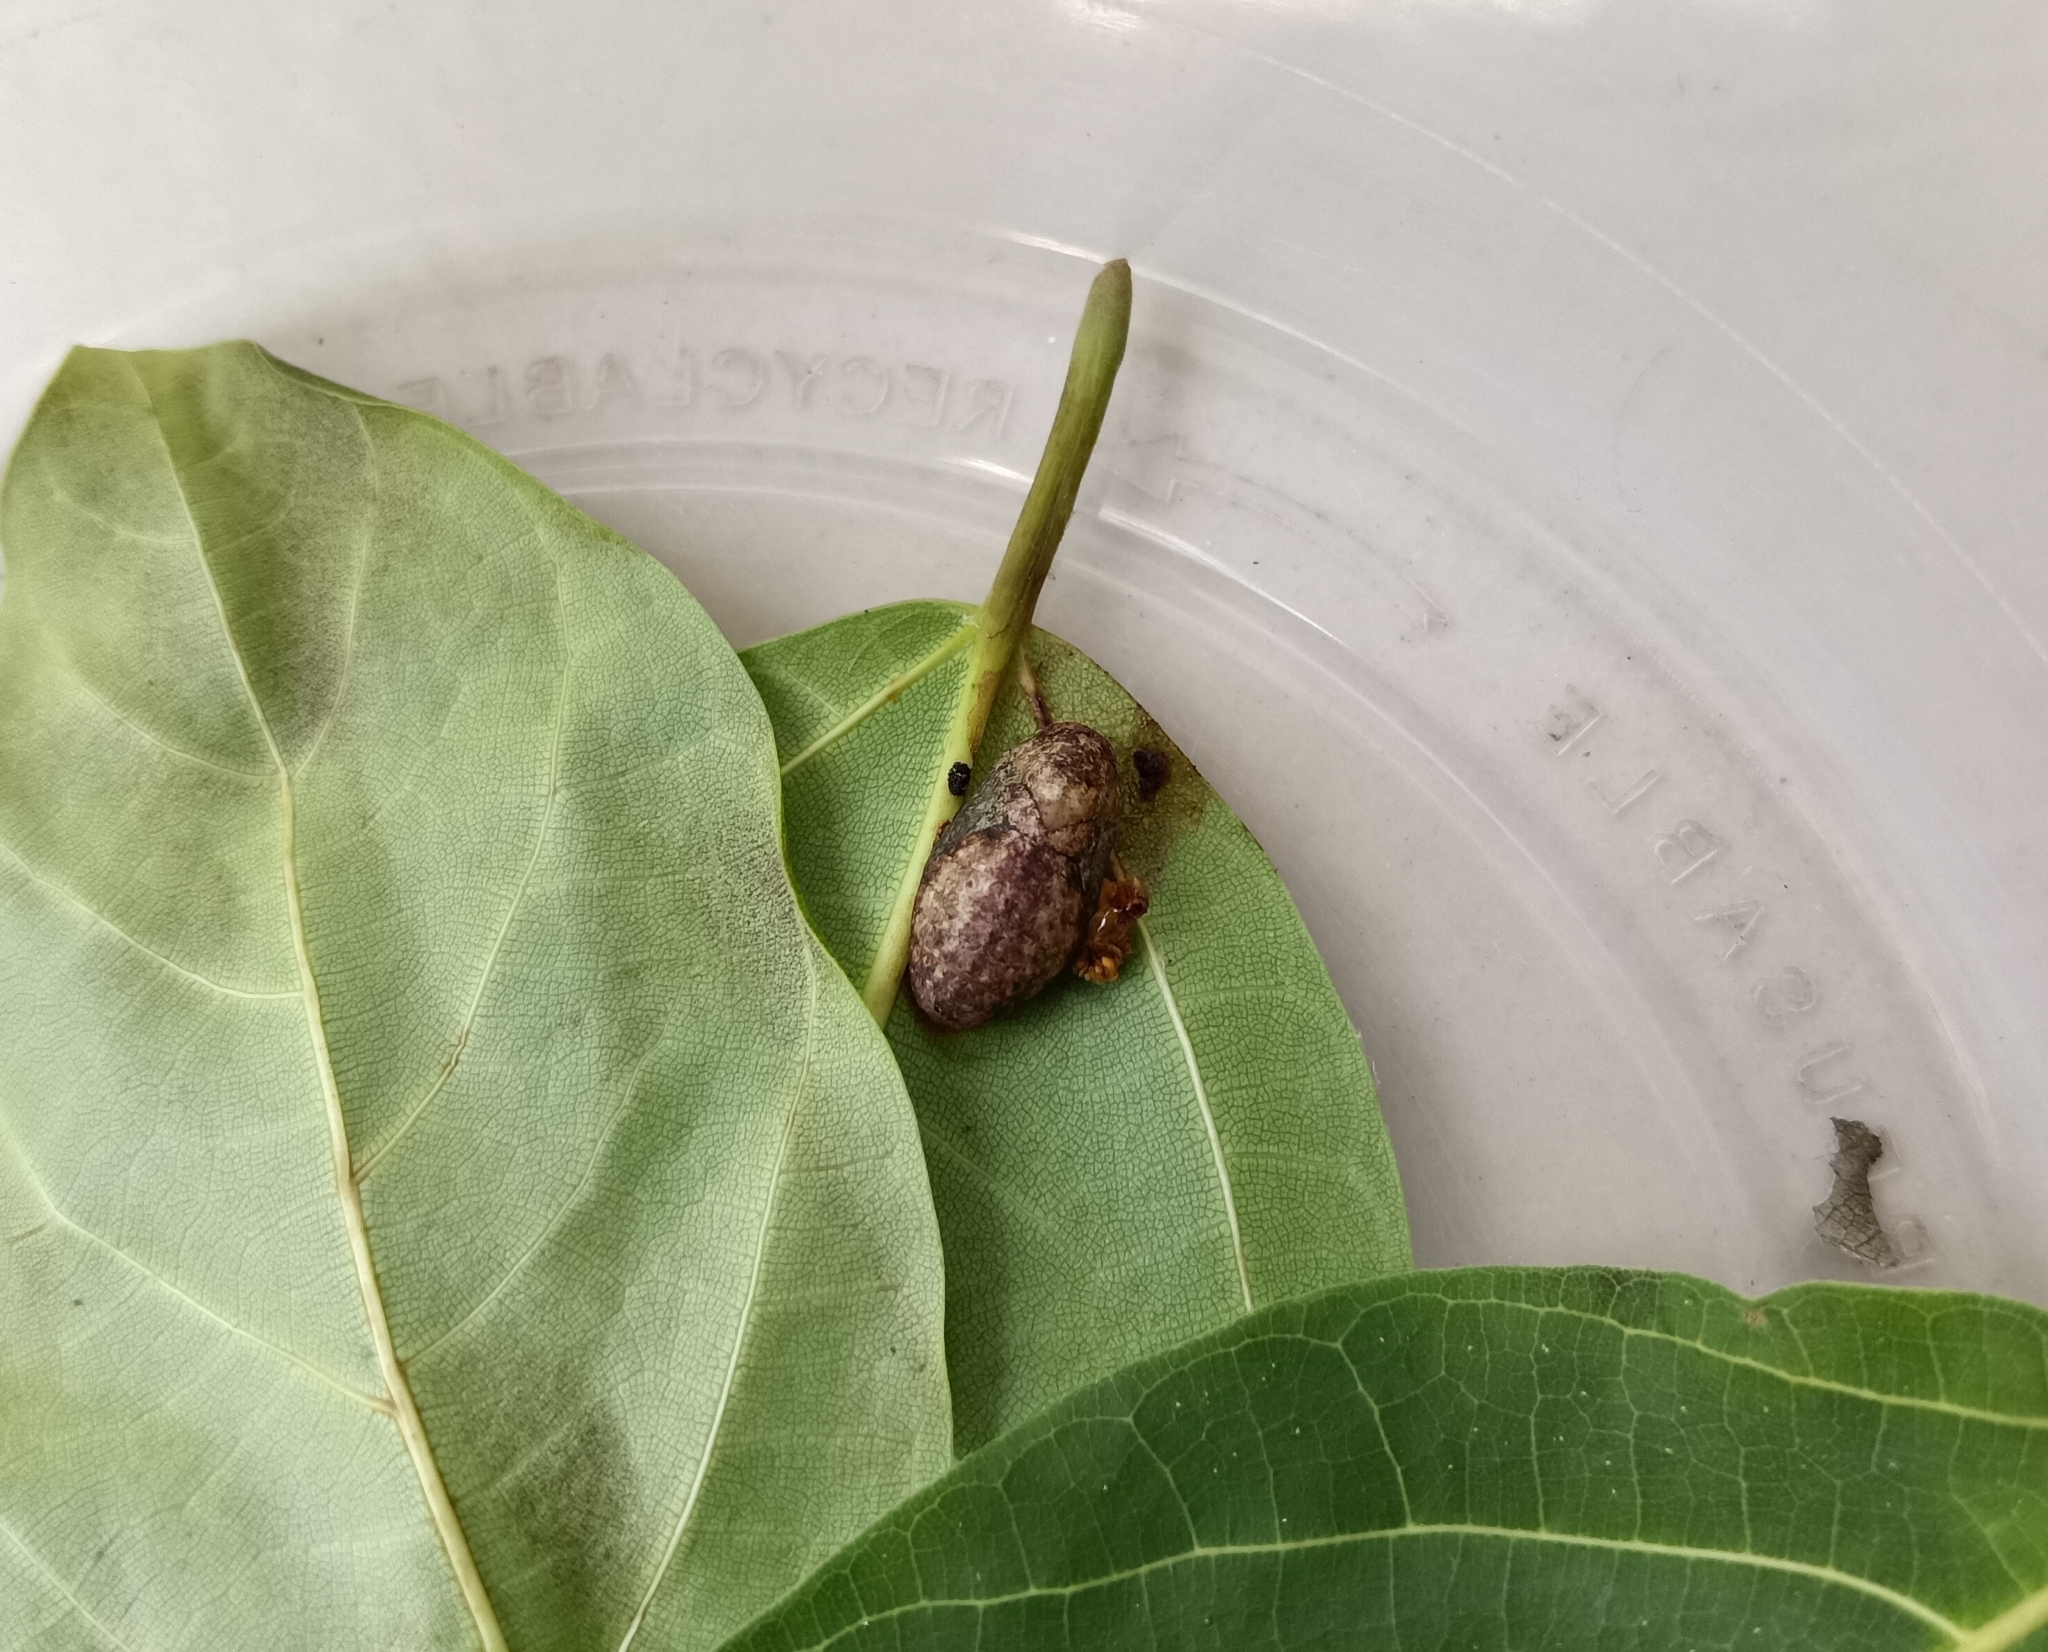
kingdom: Animalia
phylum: Arthropoda
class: Insecta
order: Lepidoptera
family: Lycaenidae
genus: Iraota
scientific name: Iraota timoleon
